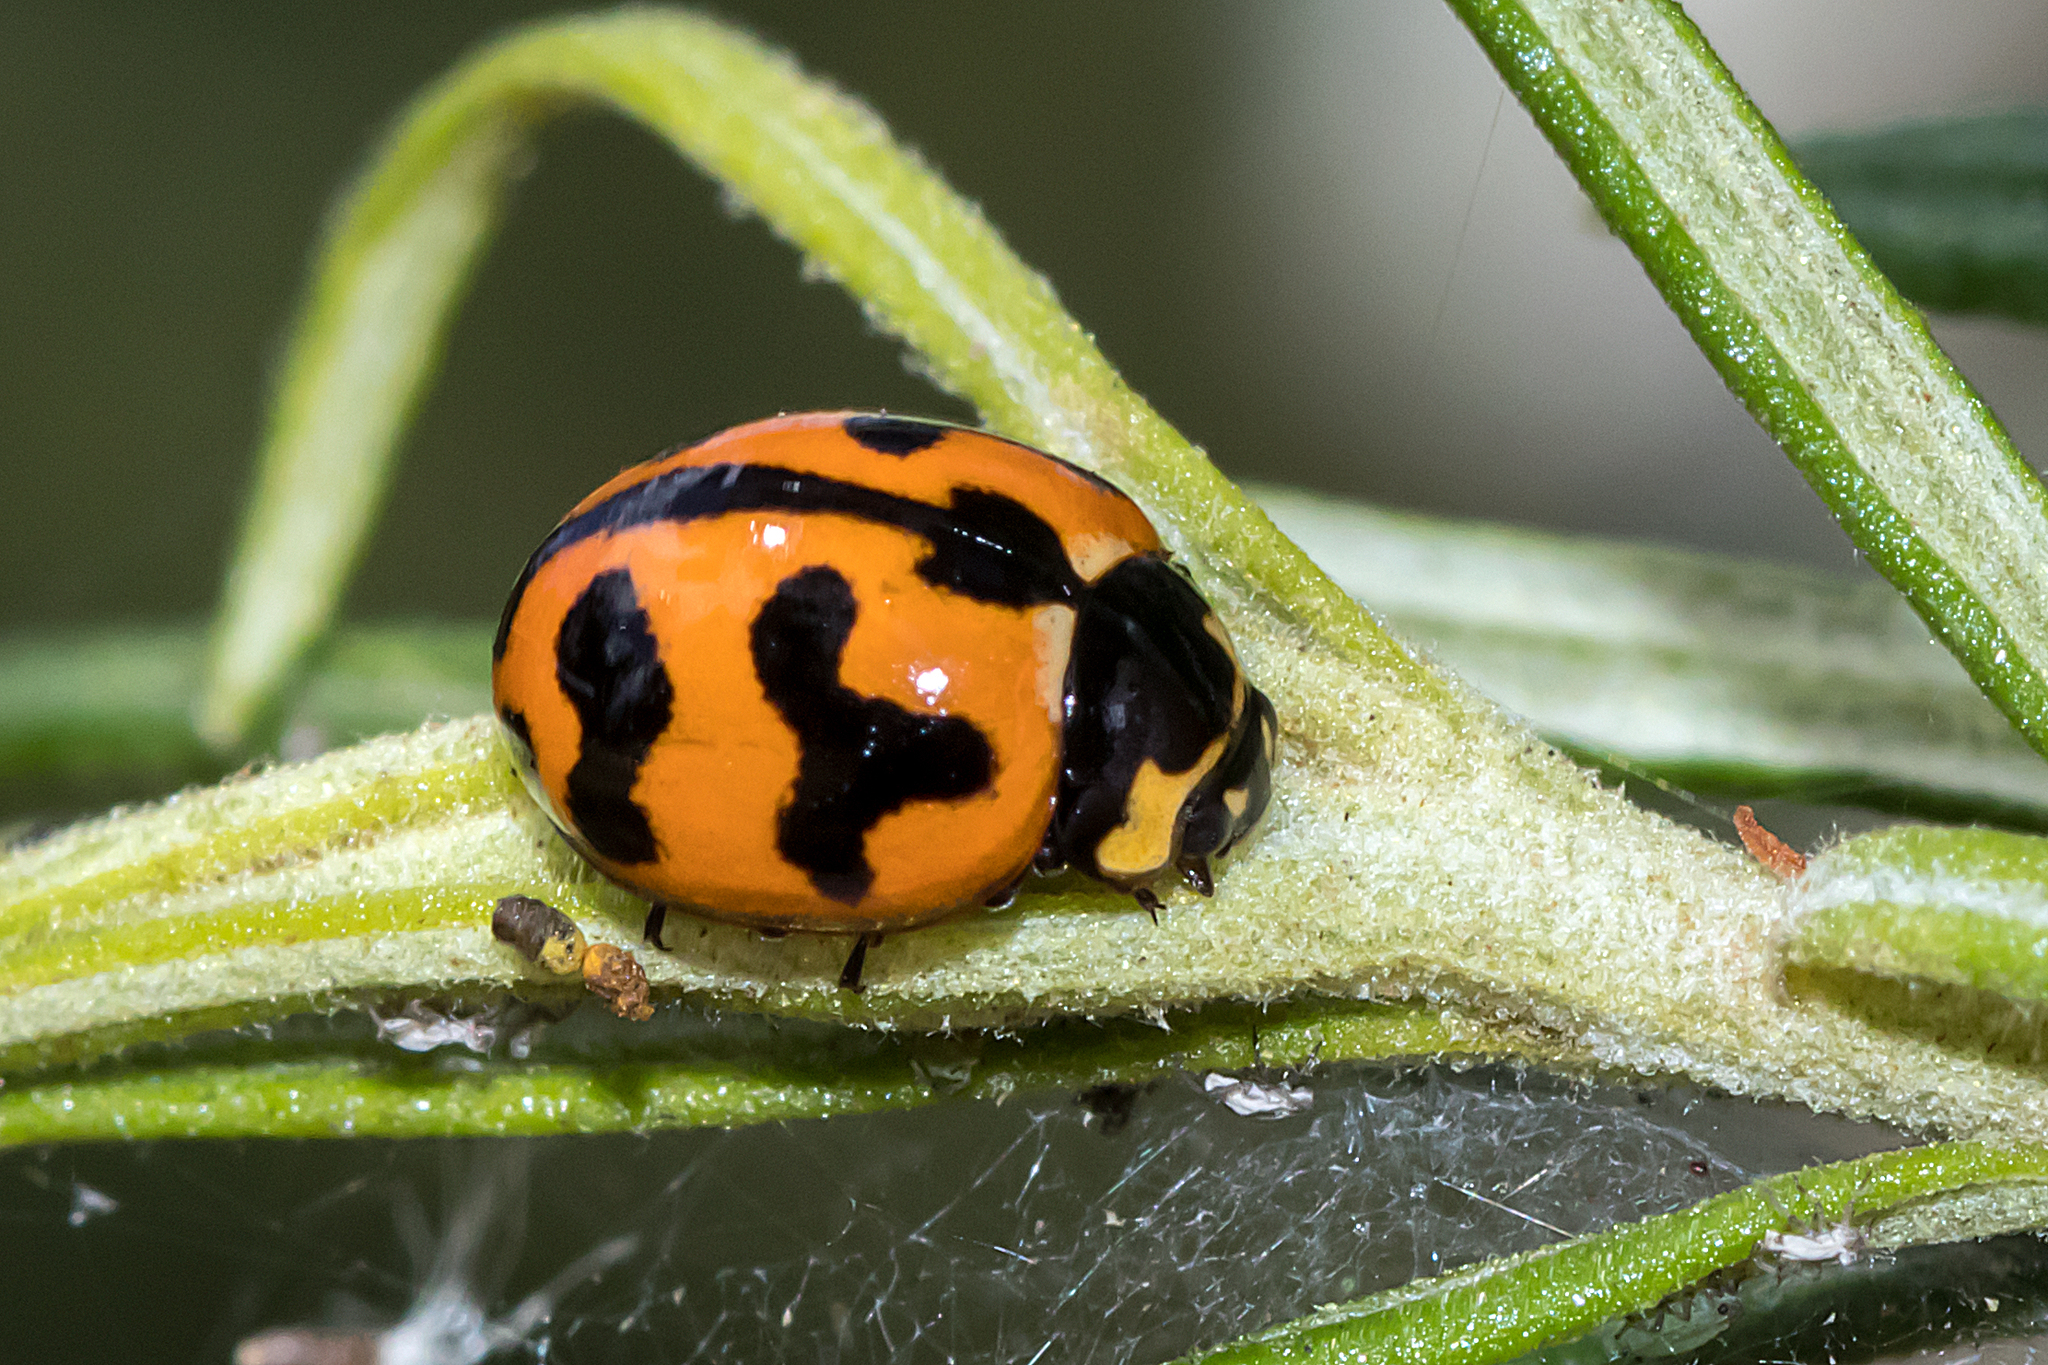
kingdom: Animalia
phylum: Arthropoda
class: Insecta
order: Coleoptera
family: Coccinellidae
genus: Coccinella
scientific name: Coccinella transversalis
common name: Transverse lady beetle
